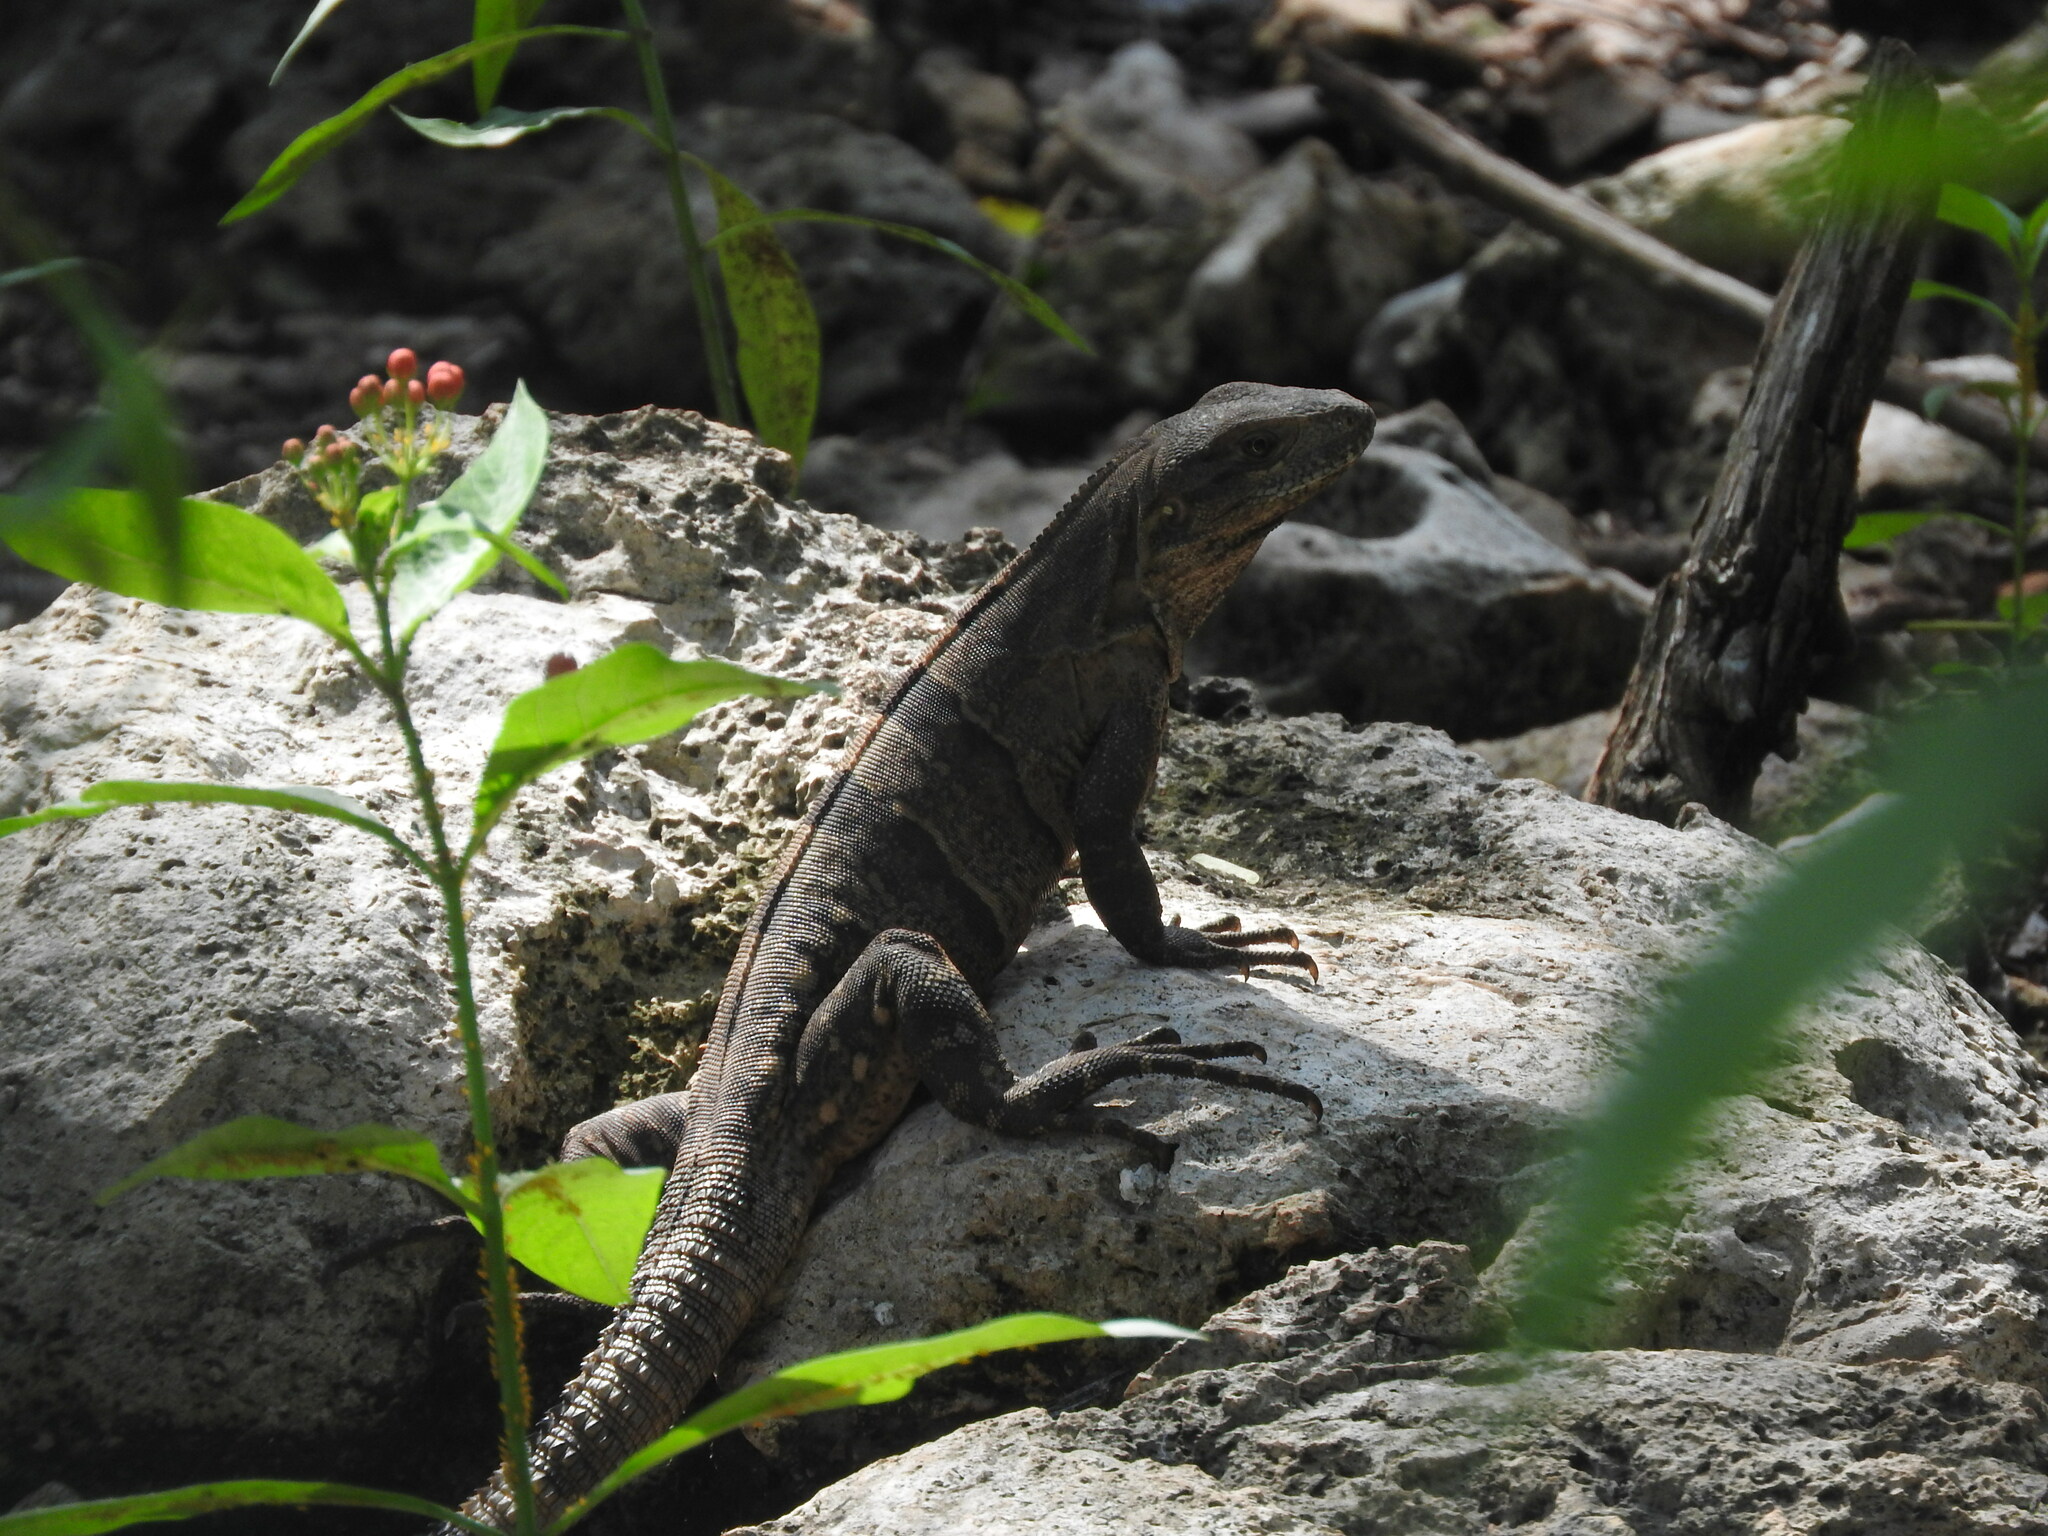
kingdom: Animalia
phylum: Chordata
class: Squamata
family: Iguanidae
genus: Ctenosaura
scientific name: Ctenosaura similis
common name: Black spiny-tailed iguana
